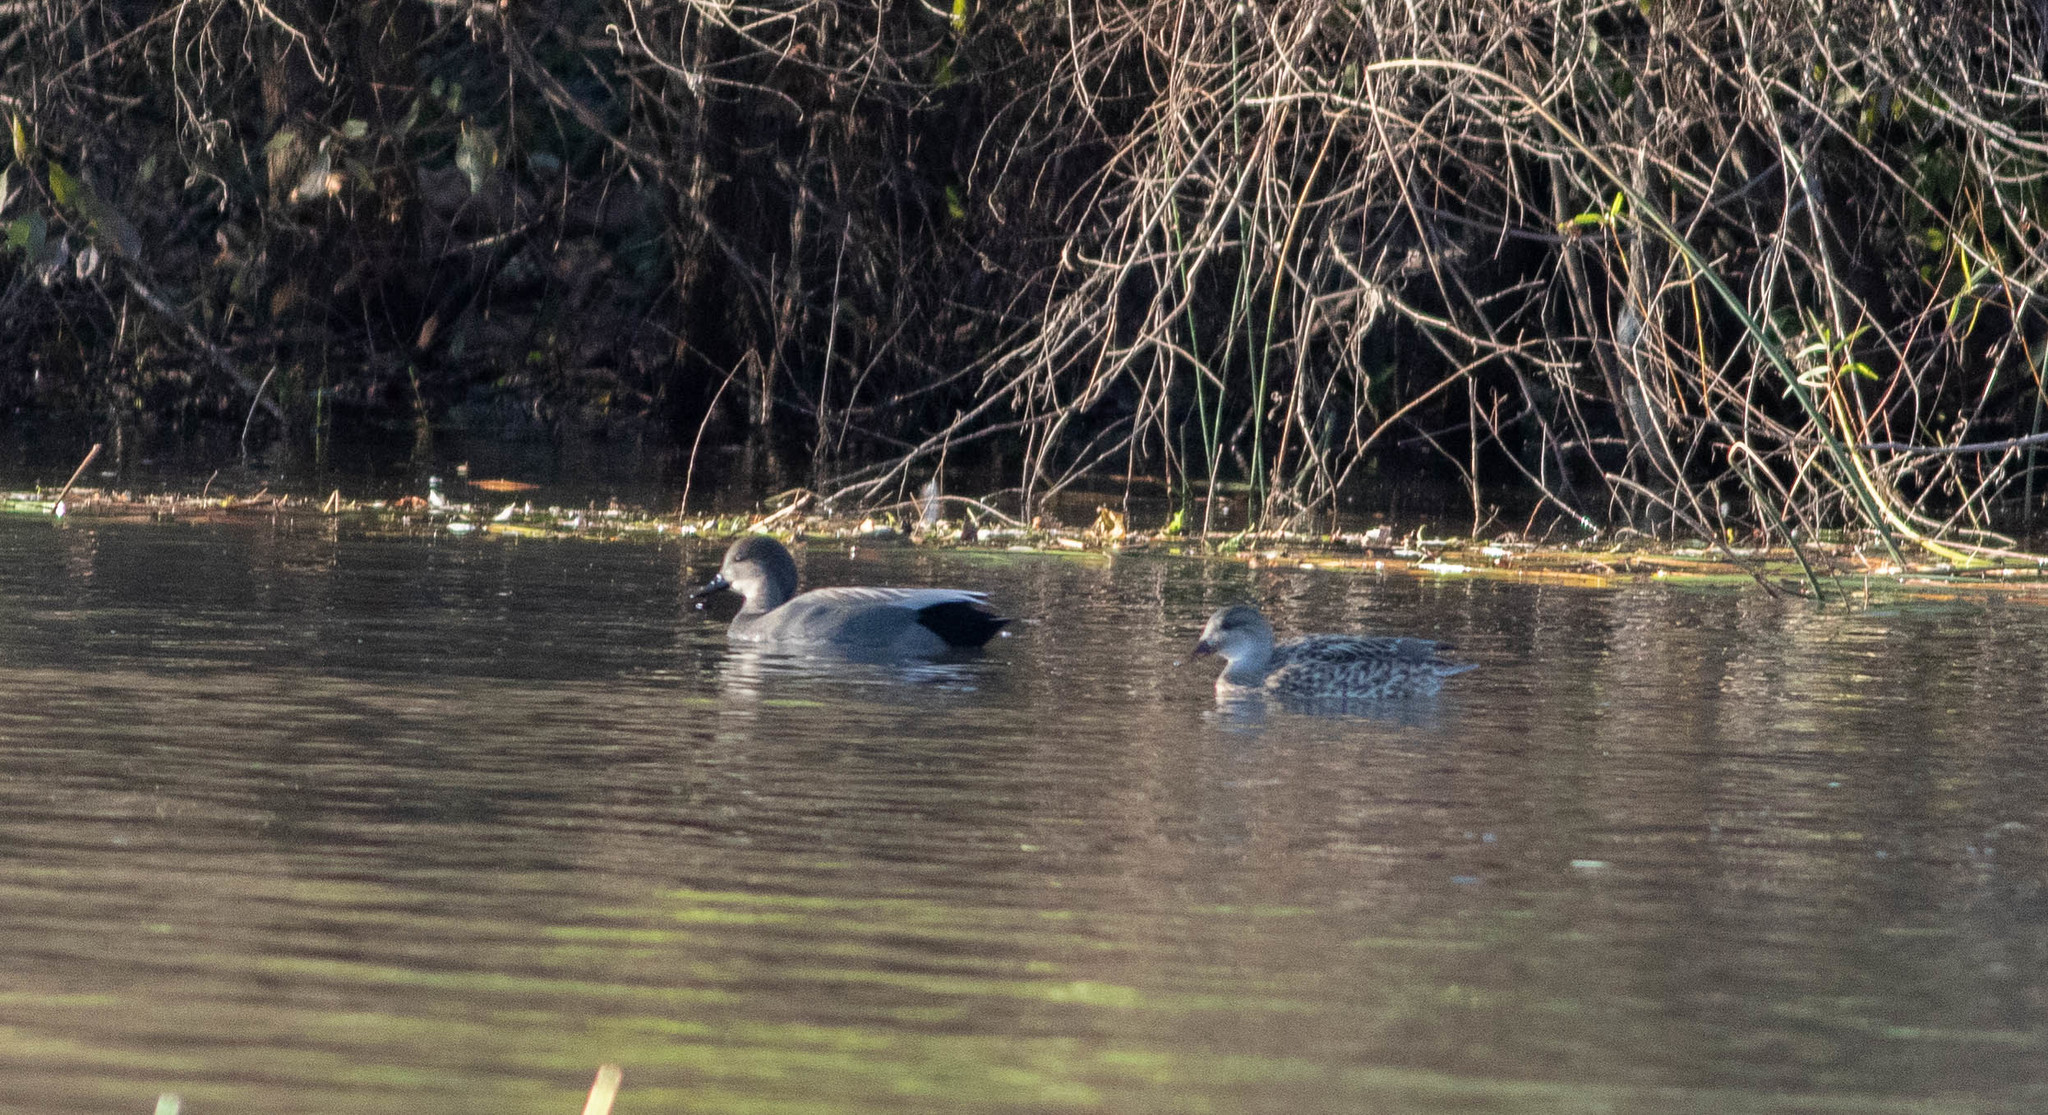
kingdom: Animalia
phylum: Chordata
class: Aves
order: Anseriformes
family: Anatidae
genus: Mareca
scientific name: Mareca strepera
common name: Gadwall
